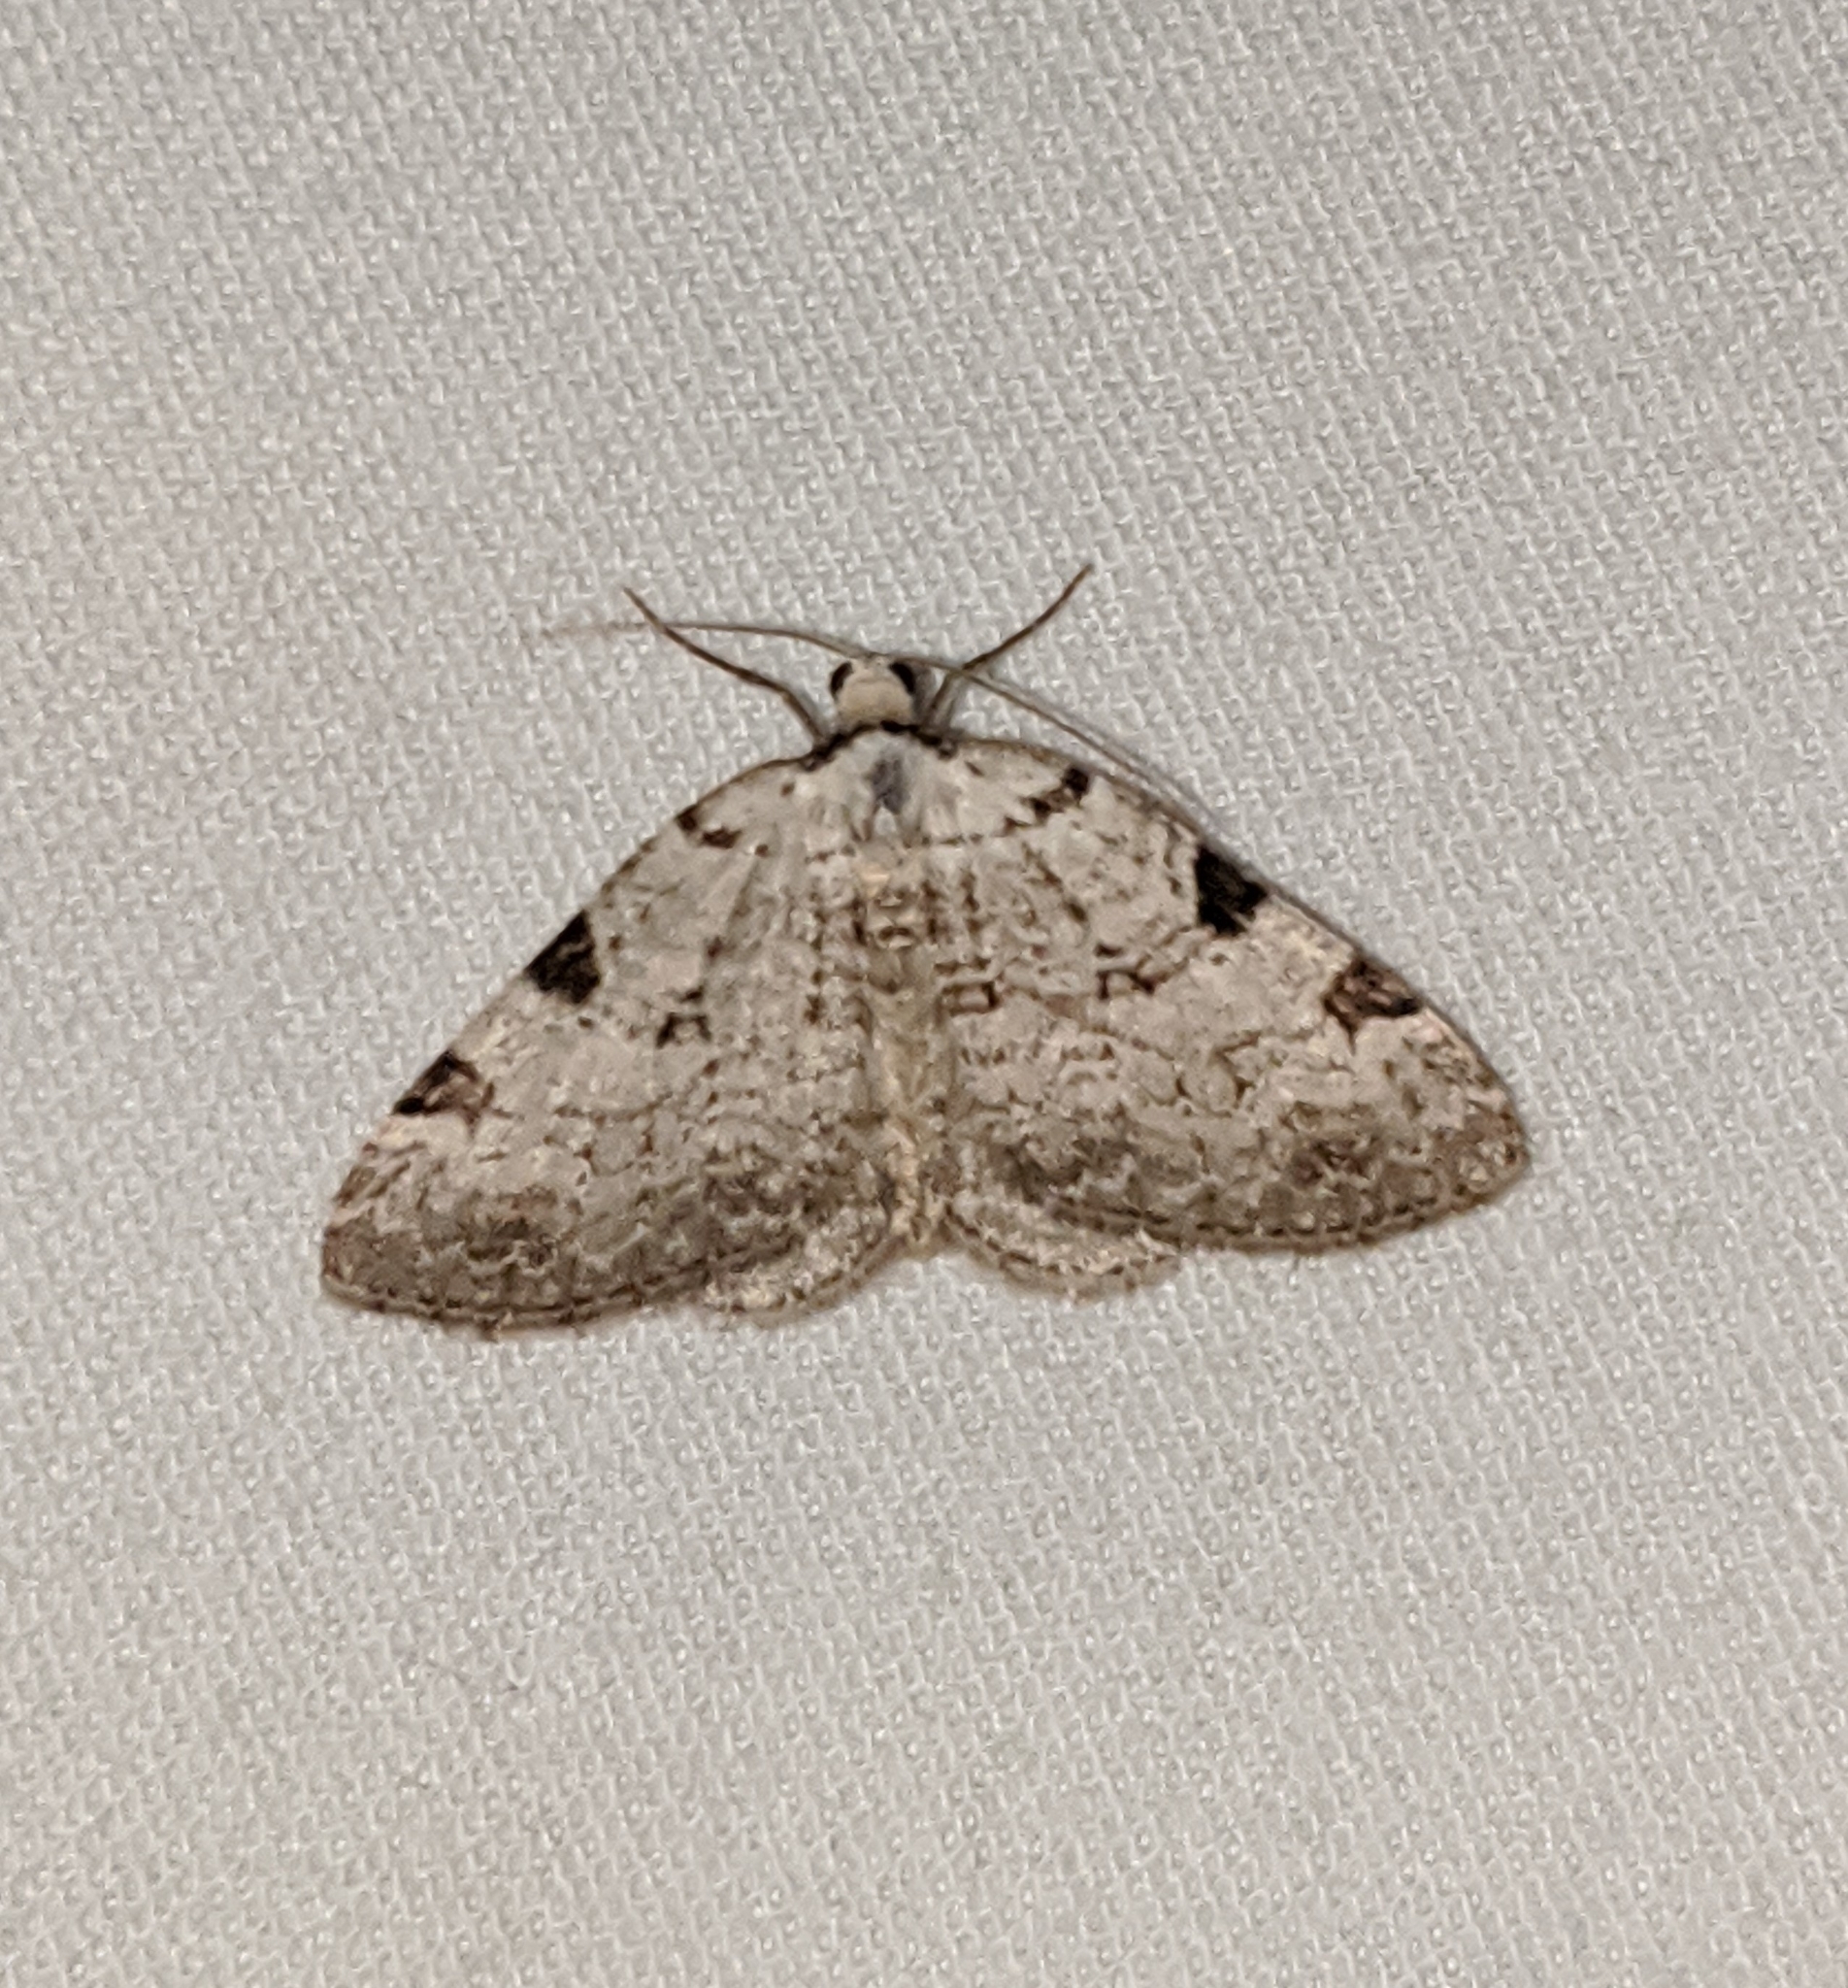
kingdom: Animalia
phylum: Arthropoda
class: Insecta
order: Lepidoptera
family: Geometridae
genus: Perizoma
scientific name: Perizoma costiguttata
